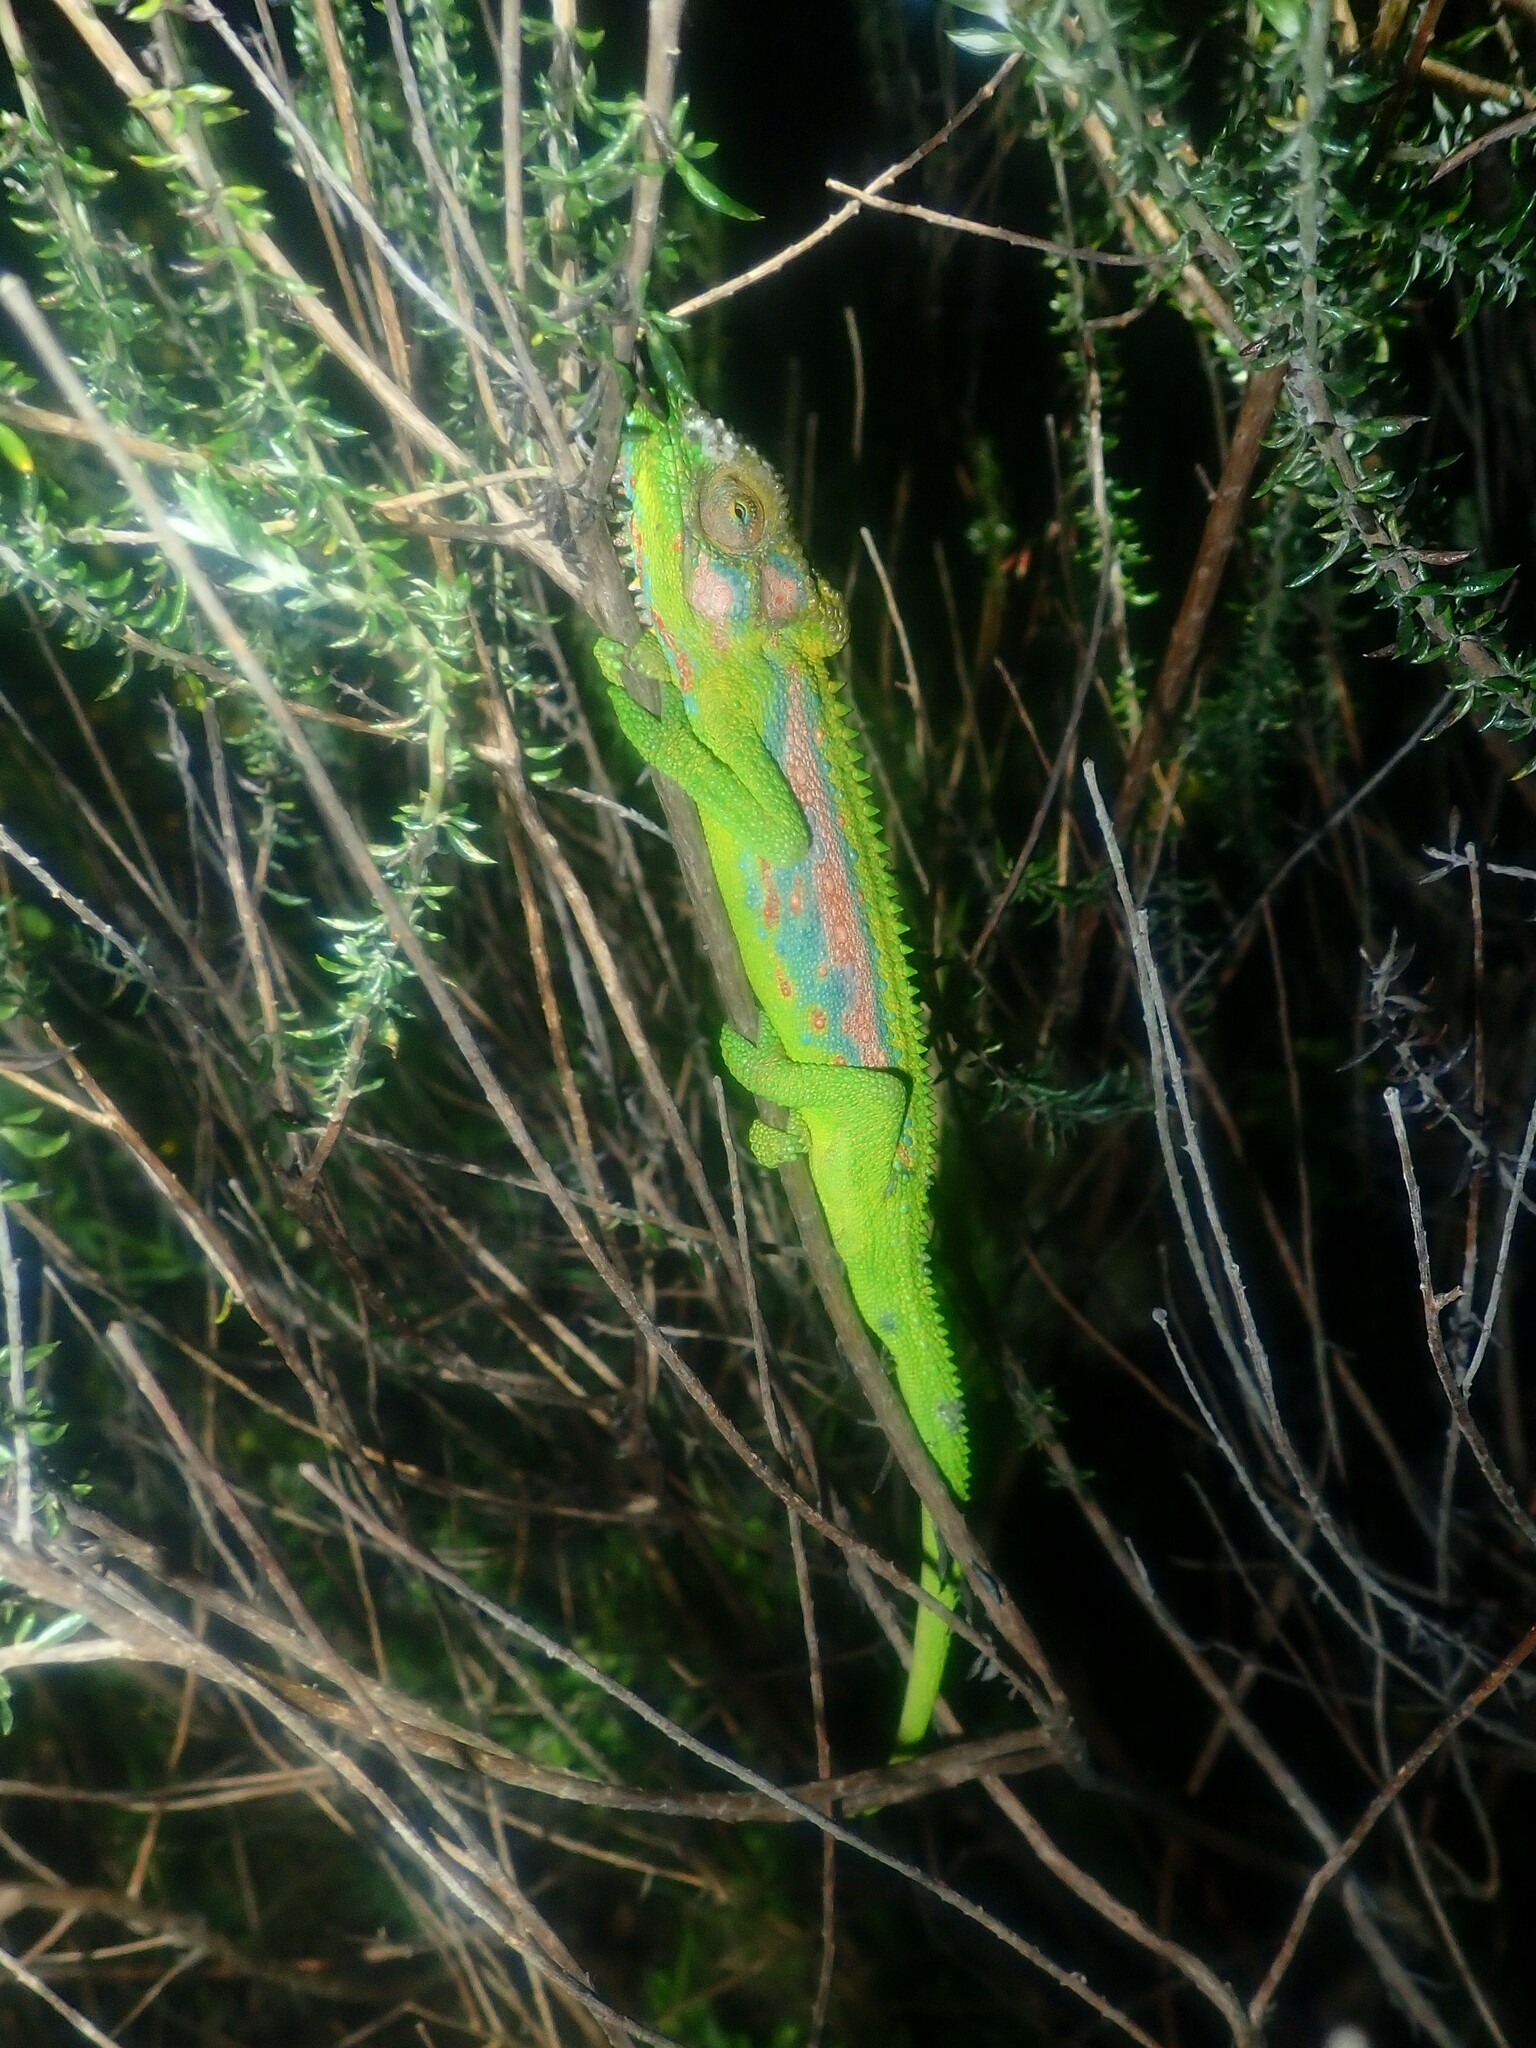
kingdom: Animalia
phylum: Chordata
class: Squamata
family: Chamaeleonidae
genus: Bradypodion
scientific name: Bradypodion pumilum
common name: Cape dwarf chameleon
